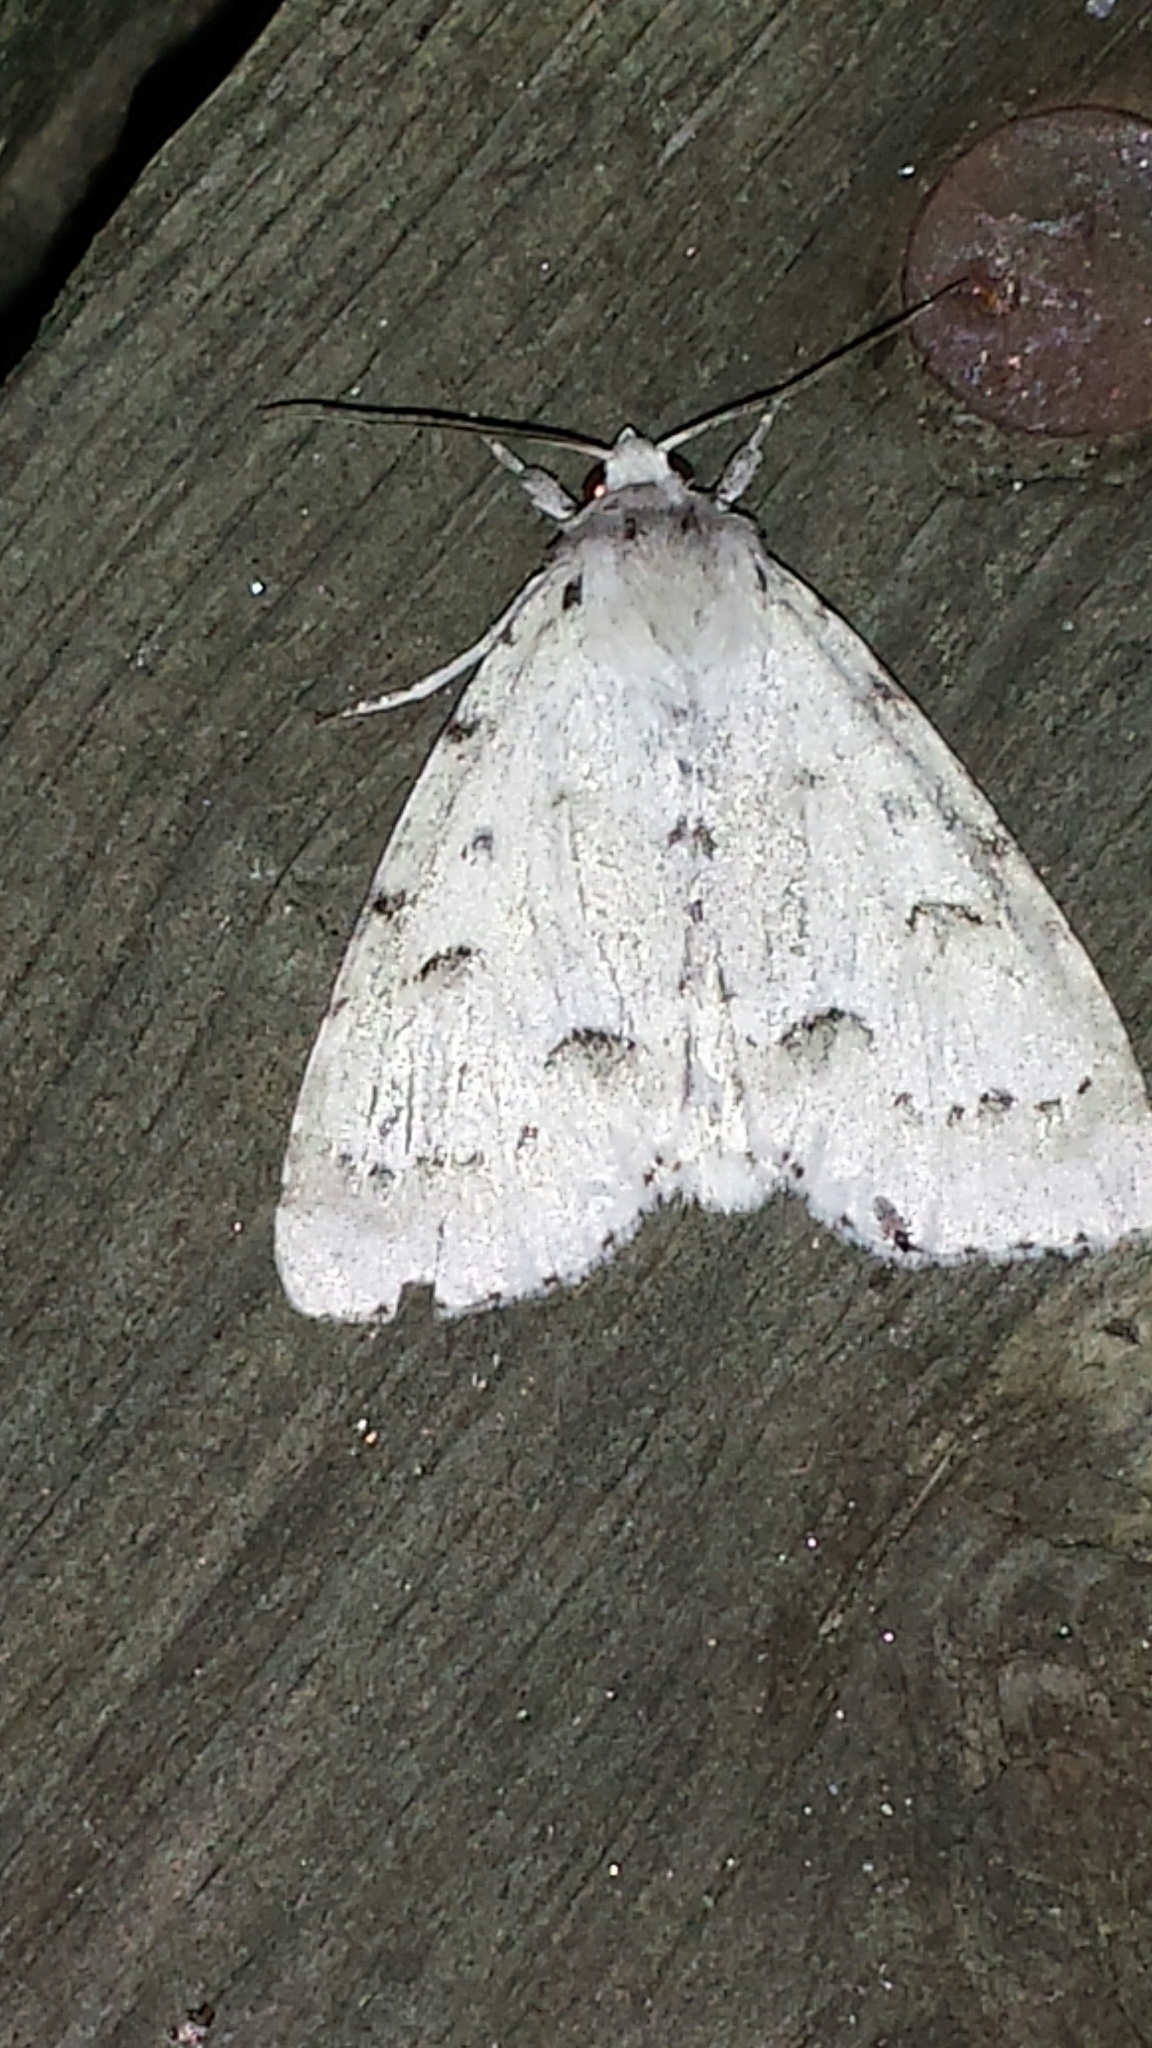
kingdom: Animalia
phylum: Arthropoda
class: Insecta
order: Lepidoptera
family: Noctuidae
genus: Acronicta
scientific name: Acronicta innotata
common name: Unmarked dagger
